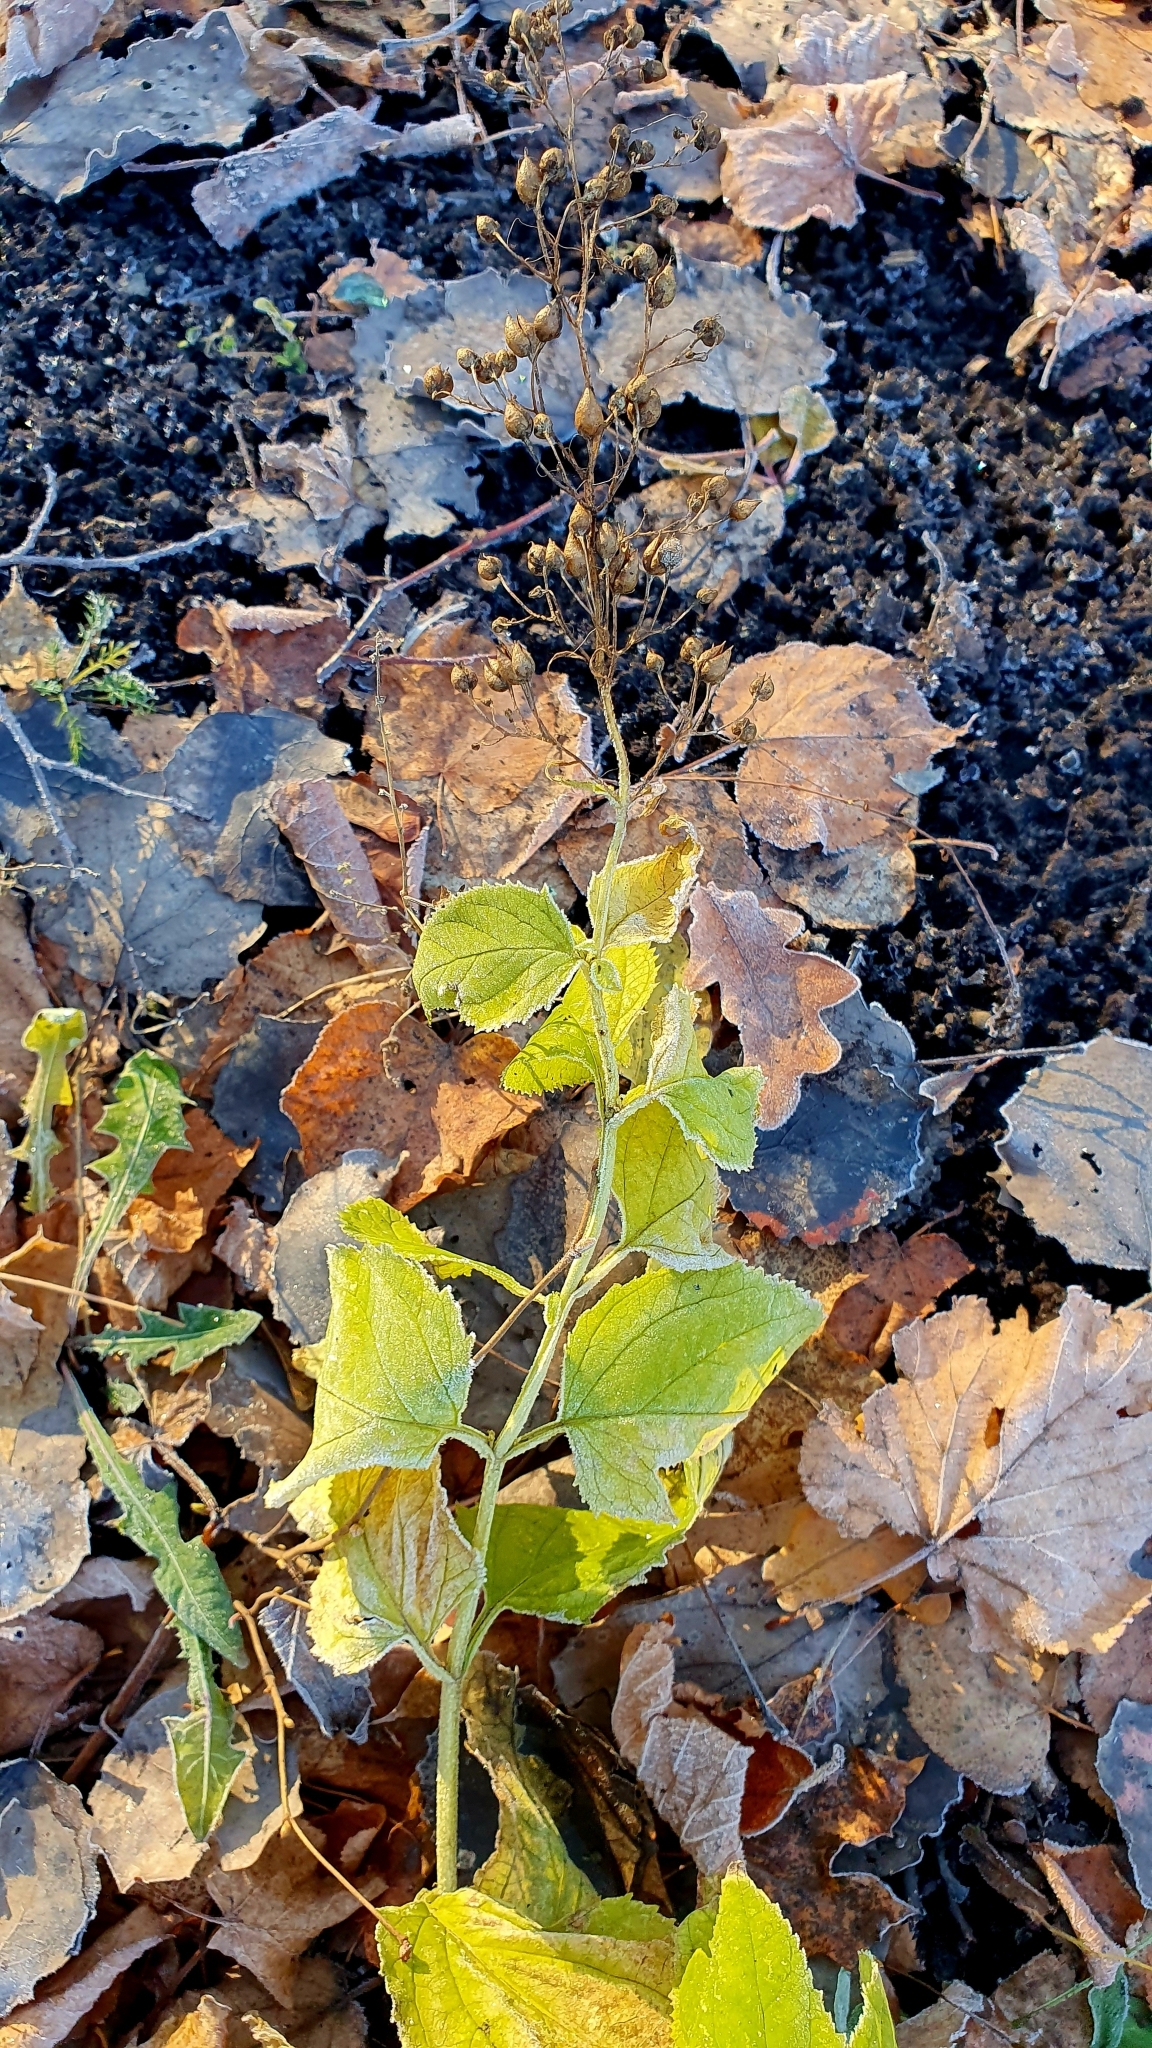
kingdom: Plantae
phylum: Tracheophyta
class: Magnoliopsida
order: Lamiales
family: Scrophulariaceae
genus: Scrophularia
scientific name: Scrophularia nodosa
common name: Common figwort
